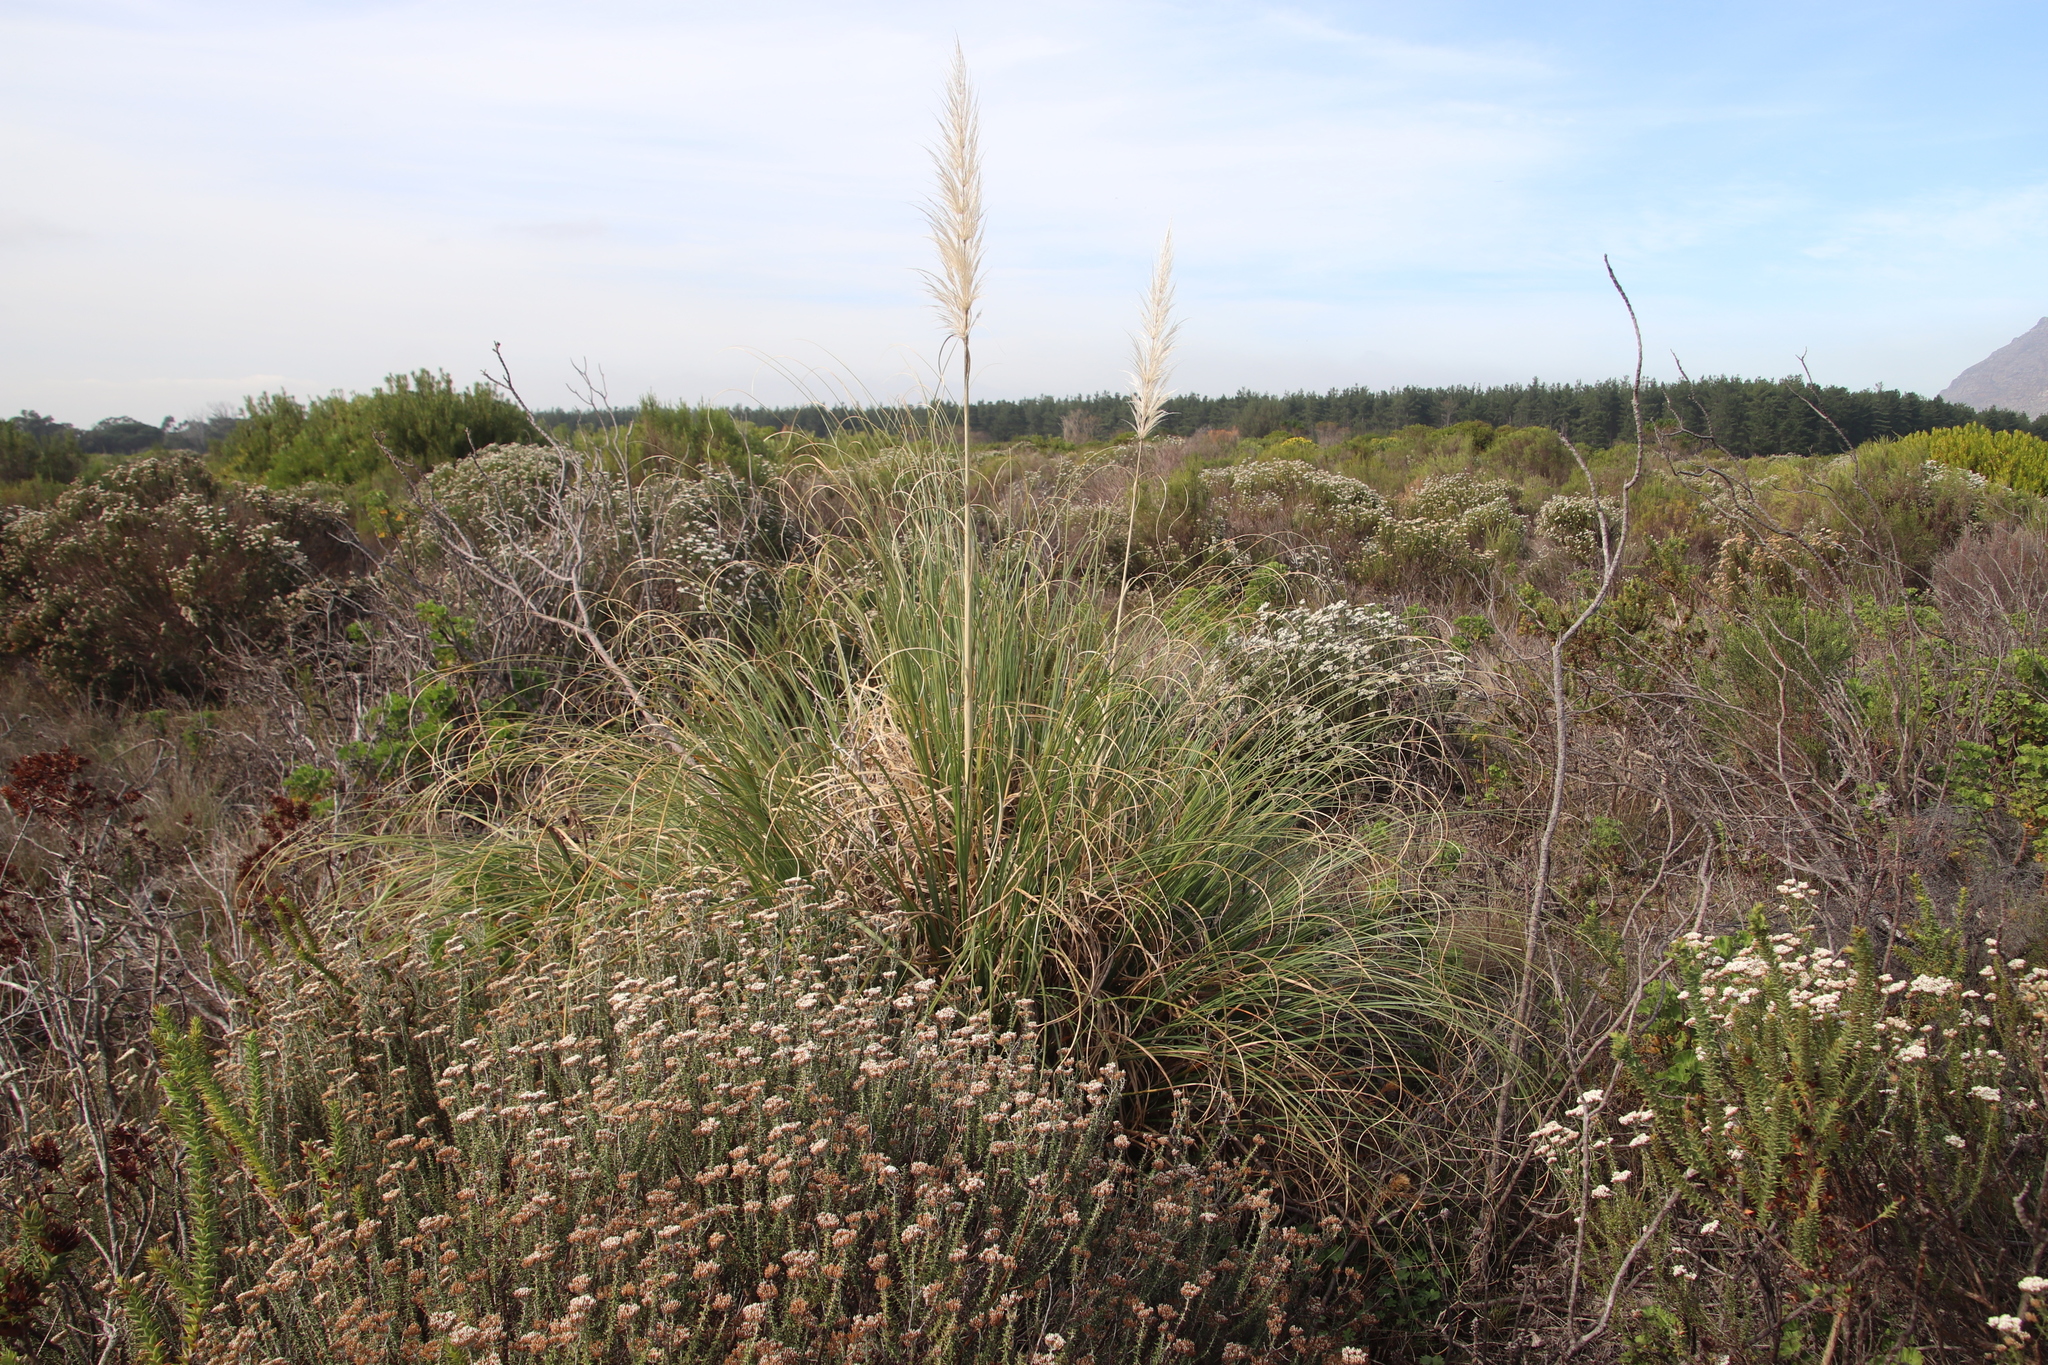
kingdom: Plantae
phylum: Tracheophyta
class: Liliopsida
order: Poales
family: Poaceae
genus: Cortaderia
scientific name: Cortaderia selloana
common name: Uruguayan pampas grass
